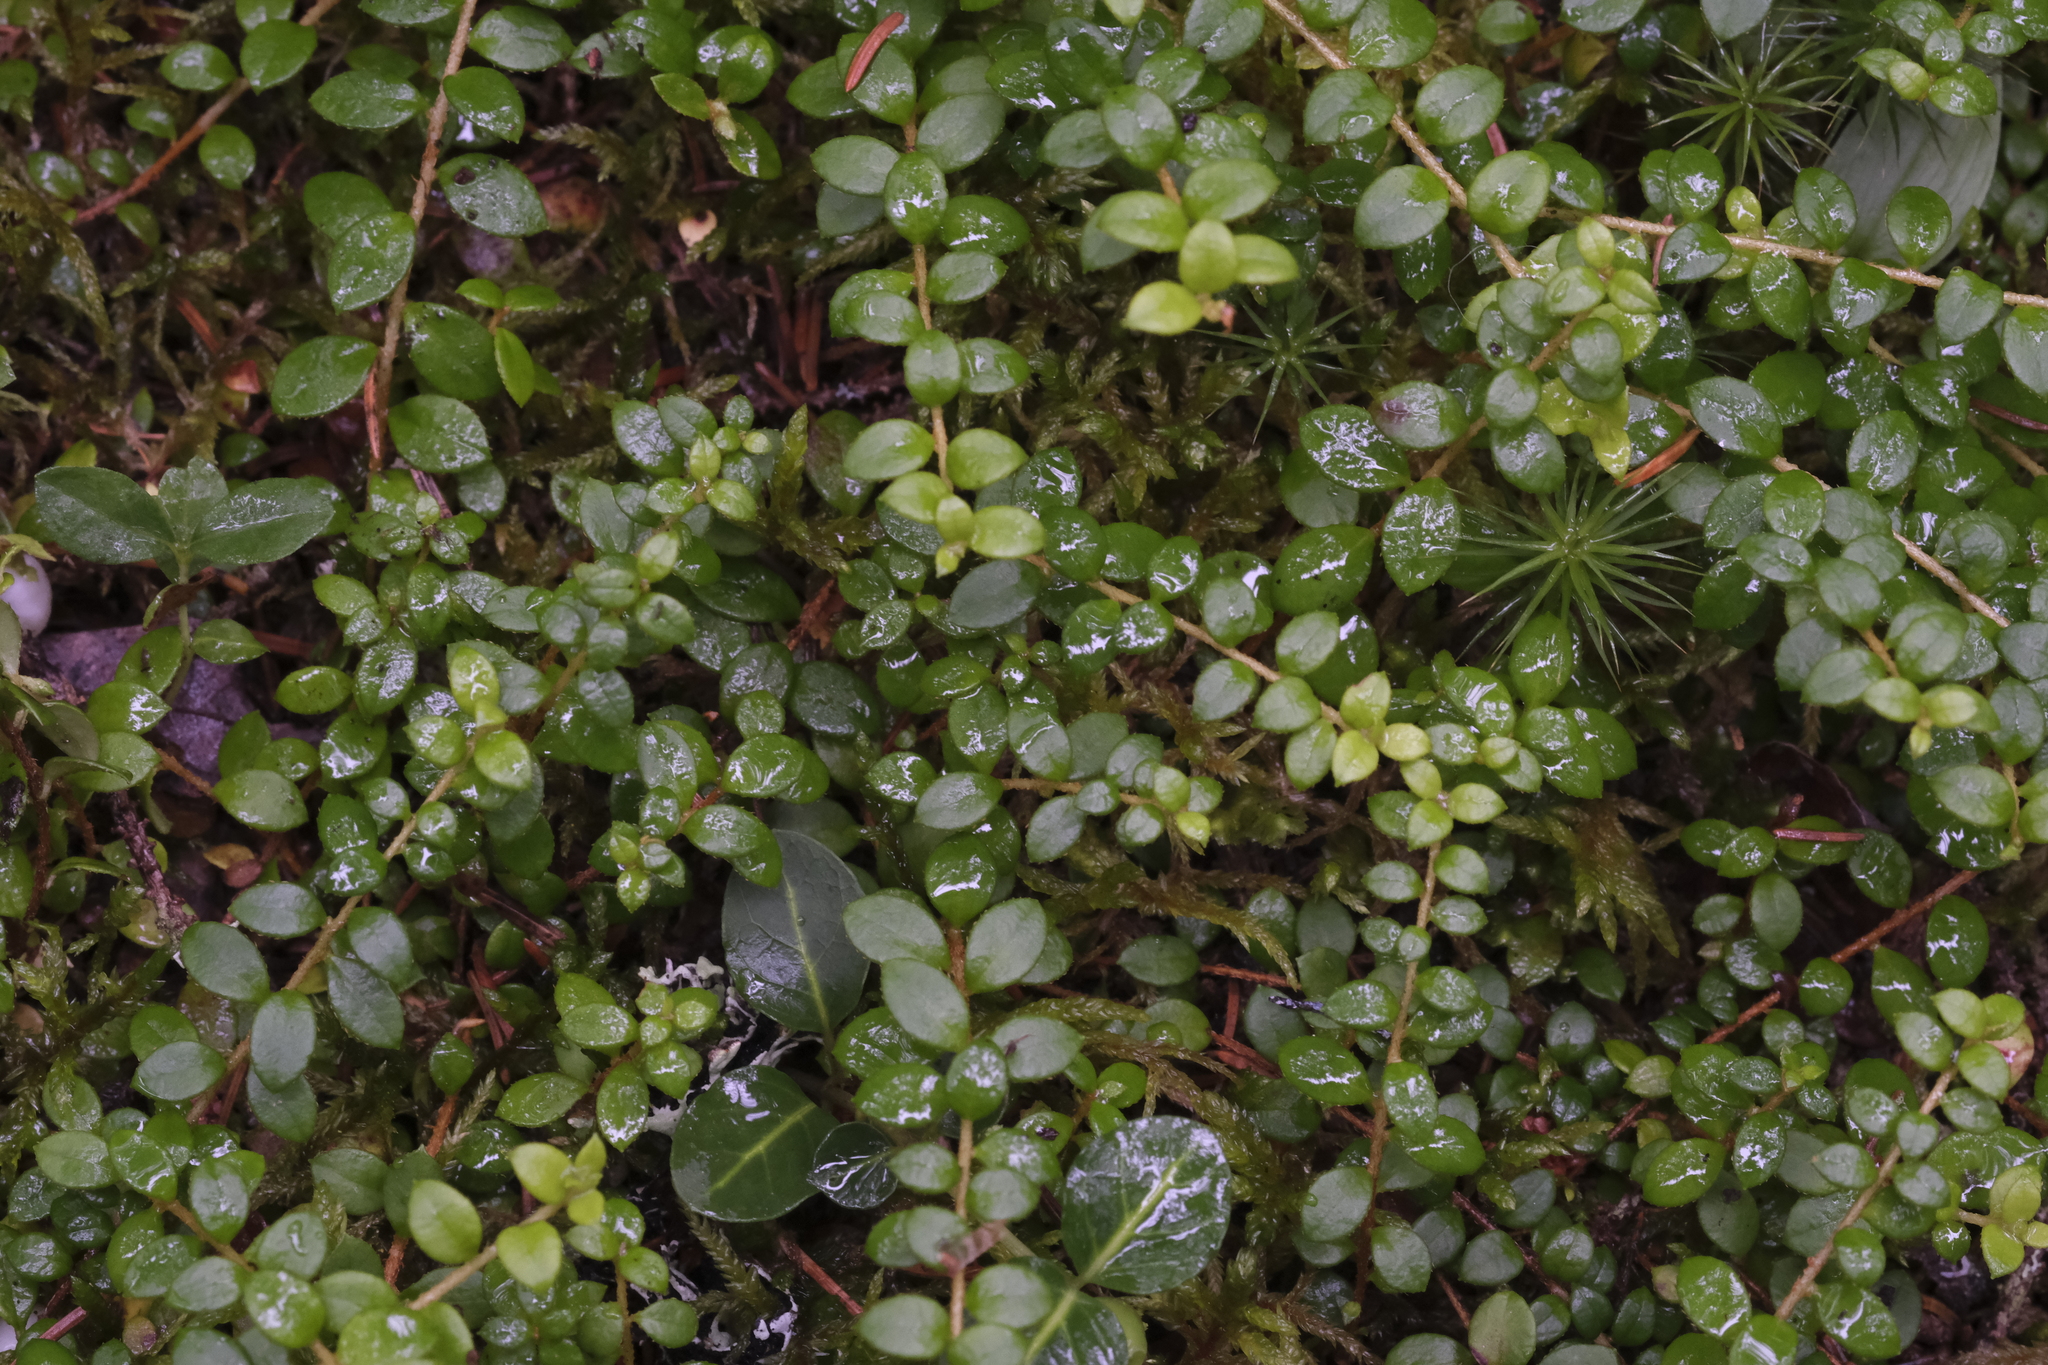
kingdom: Plantae
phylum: Tracheophyta
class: Magnoliopsida
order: Ericales
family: Ericaceae
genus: Gaultheria
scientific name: Gaultheria hispidula
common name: Cancer wintergreen
